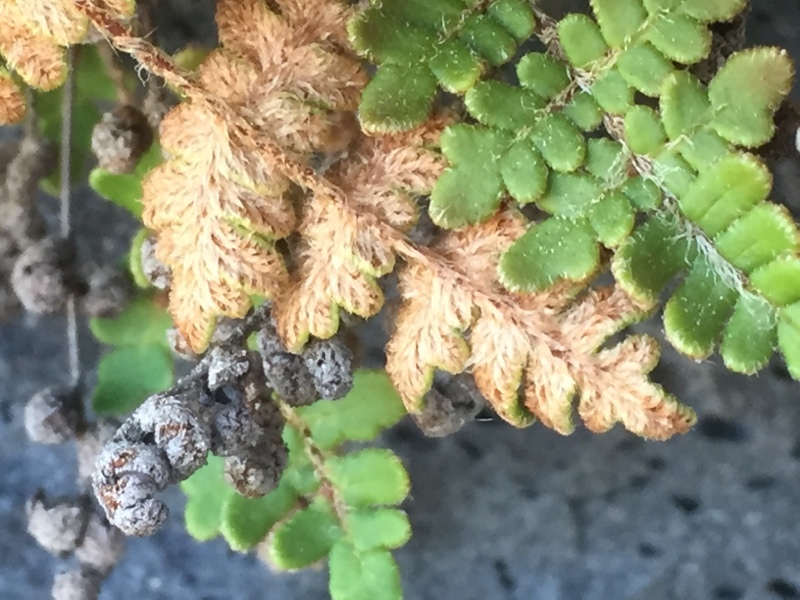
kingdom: Plantae
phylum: Tracheophyta
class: Polypodiopsida
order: Polypodiales
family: Pteridaceae
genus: Paragymnopteris
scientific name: Paragymnopteris marantae
